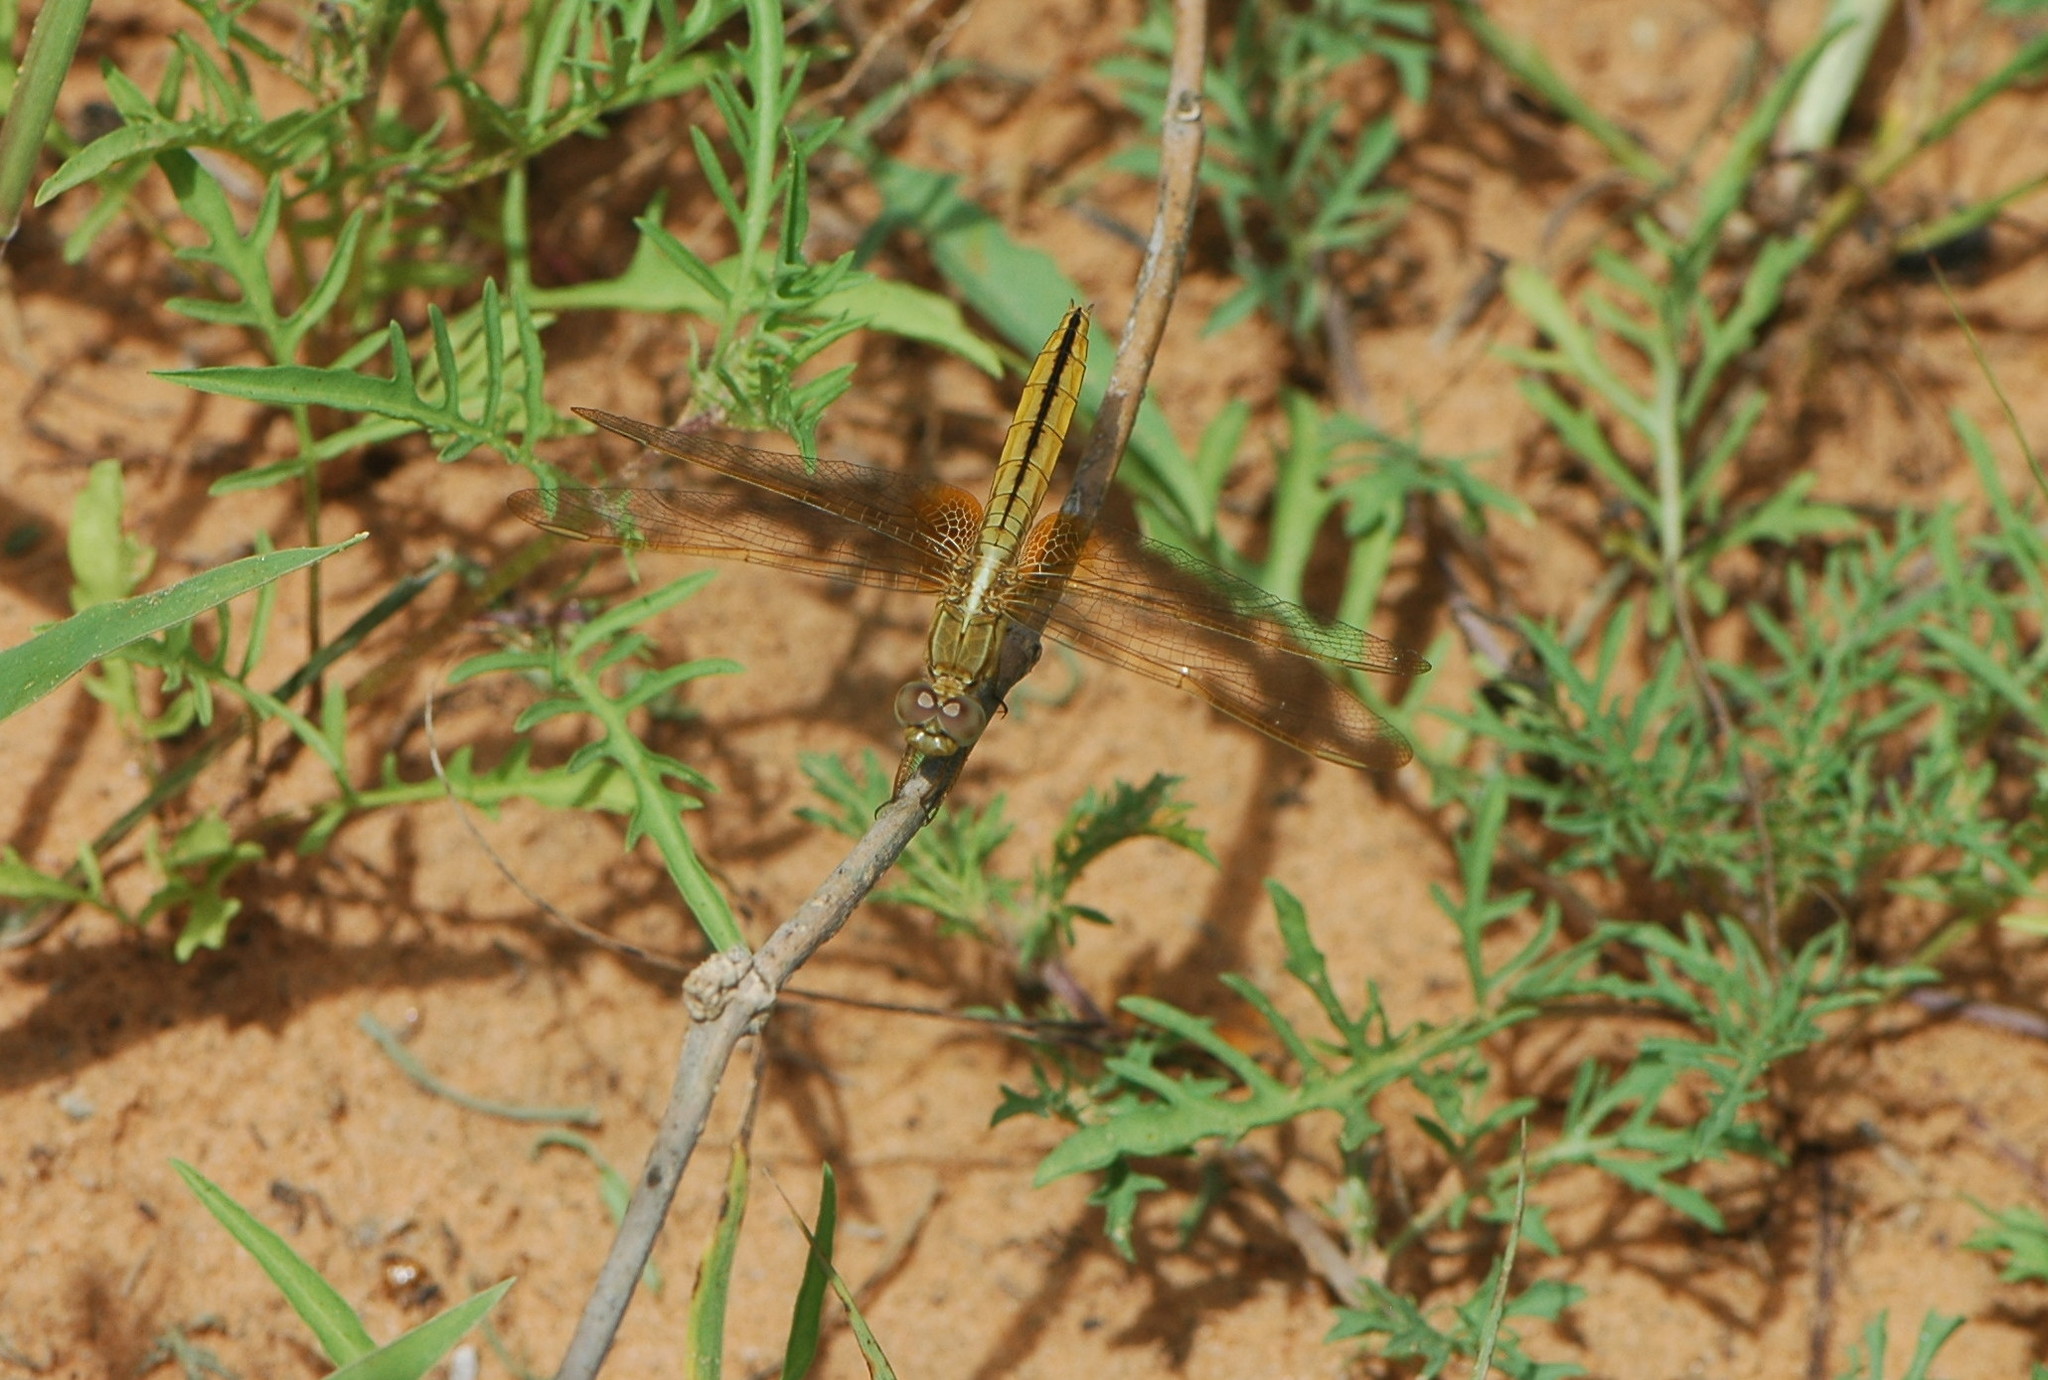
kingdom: Animalia
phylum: Arthropoda
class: Insecta
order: Odonata
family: Libellulidae
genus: Crocothemis
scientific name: Crocothemis erythraea
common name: Scarlet dragonfly
